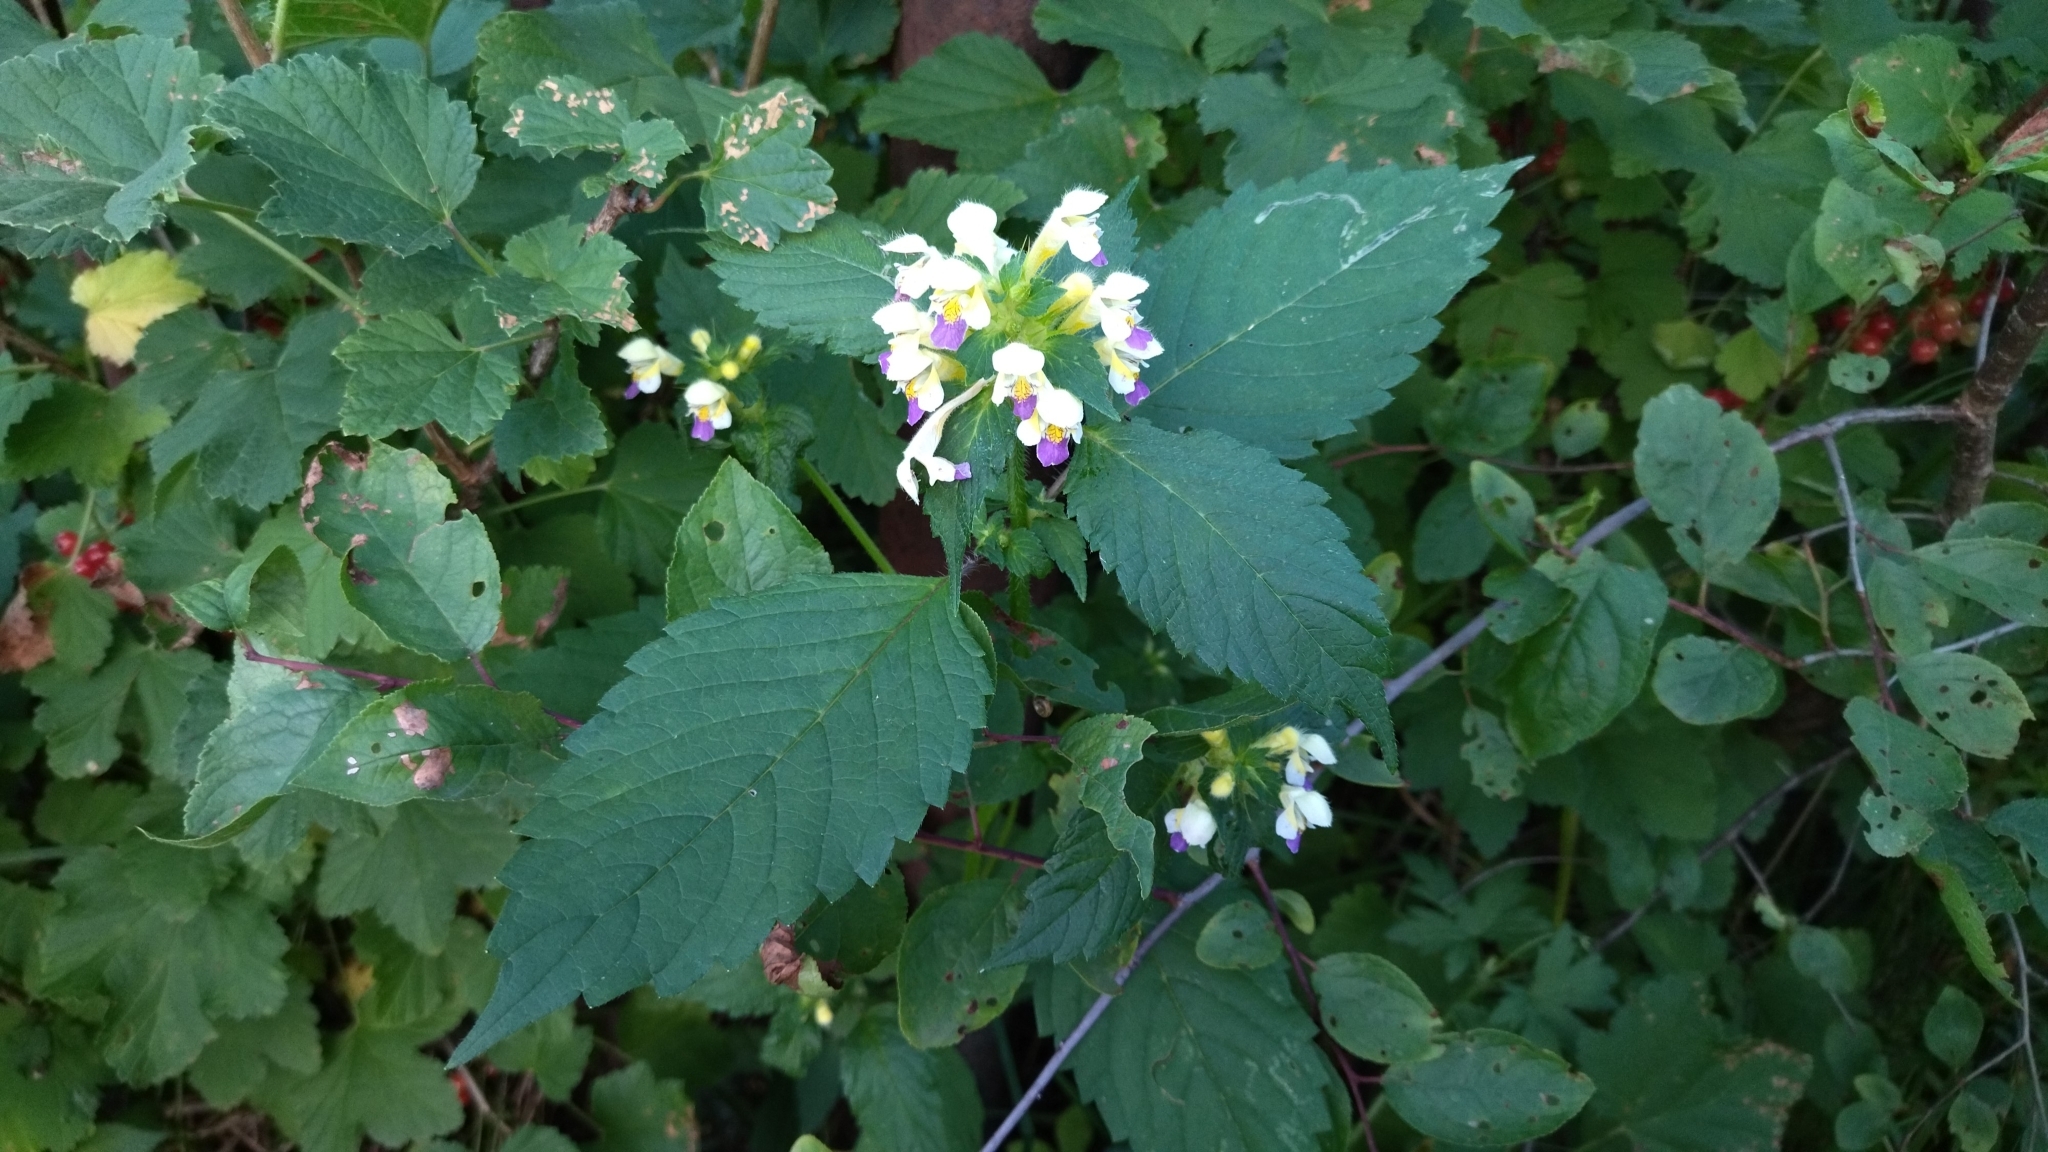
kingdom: Plantae
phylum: Tracheophyta
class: Magnoliopsida
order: Lamiales
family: Lamiaceae
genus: Galeopsis
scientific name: Galeopsis speciosa
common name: Large-flowered hemp-nettle
